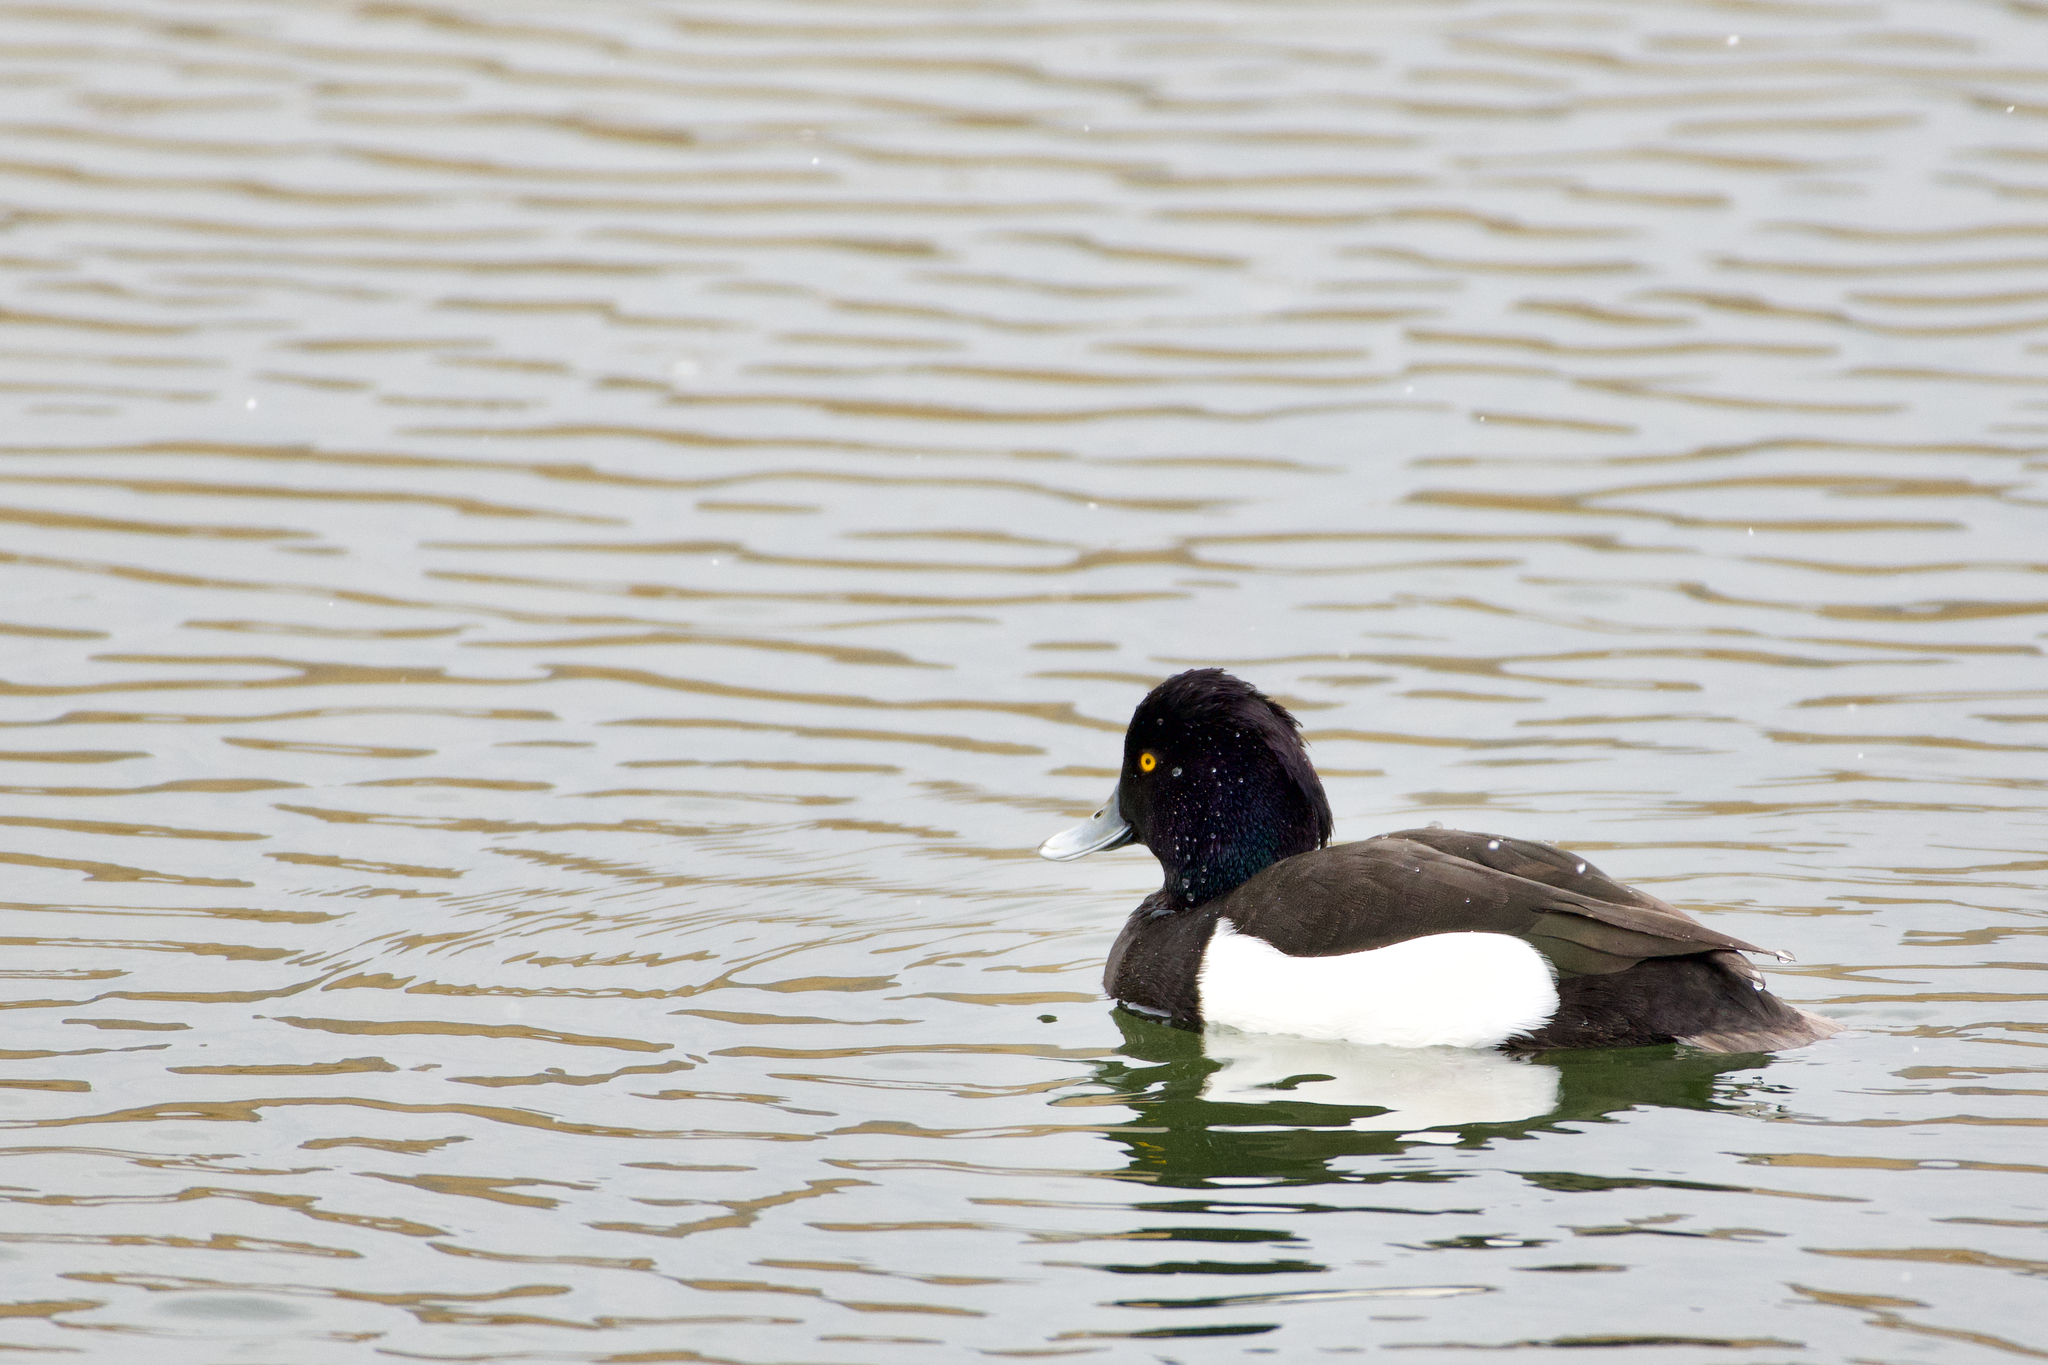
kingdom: Animalia
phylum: Chordata
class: Aves
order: Anseriformes
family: Anatidae
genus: Aythya
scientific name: Aythya fuligula
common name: Tufted duck
